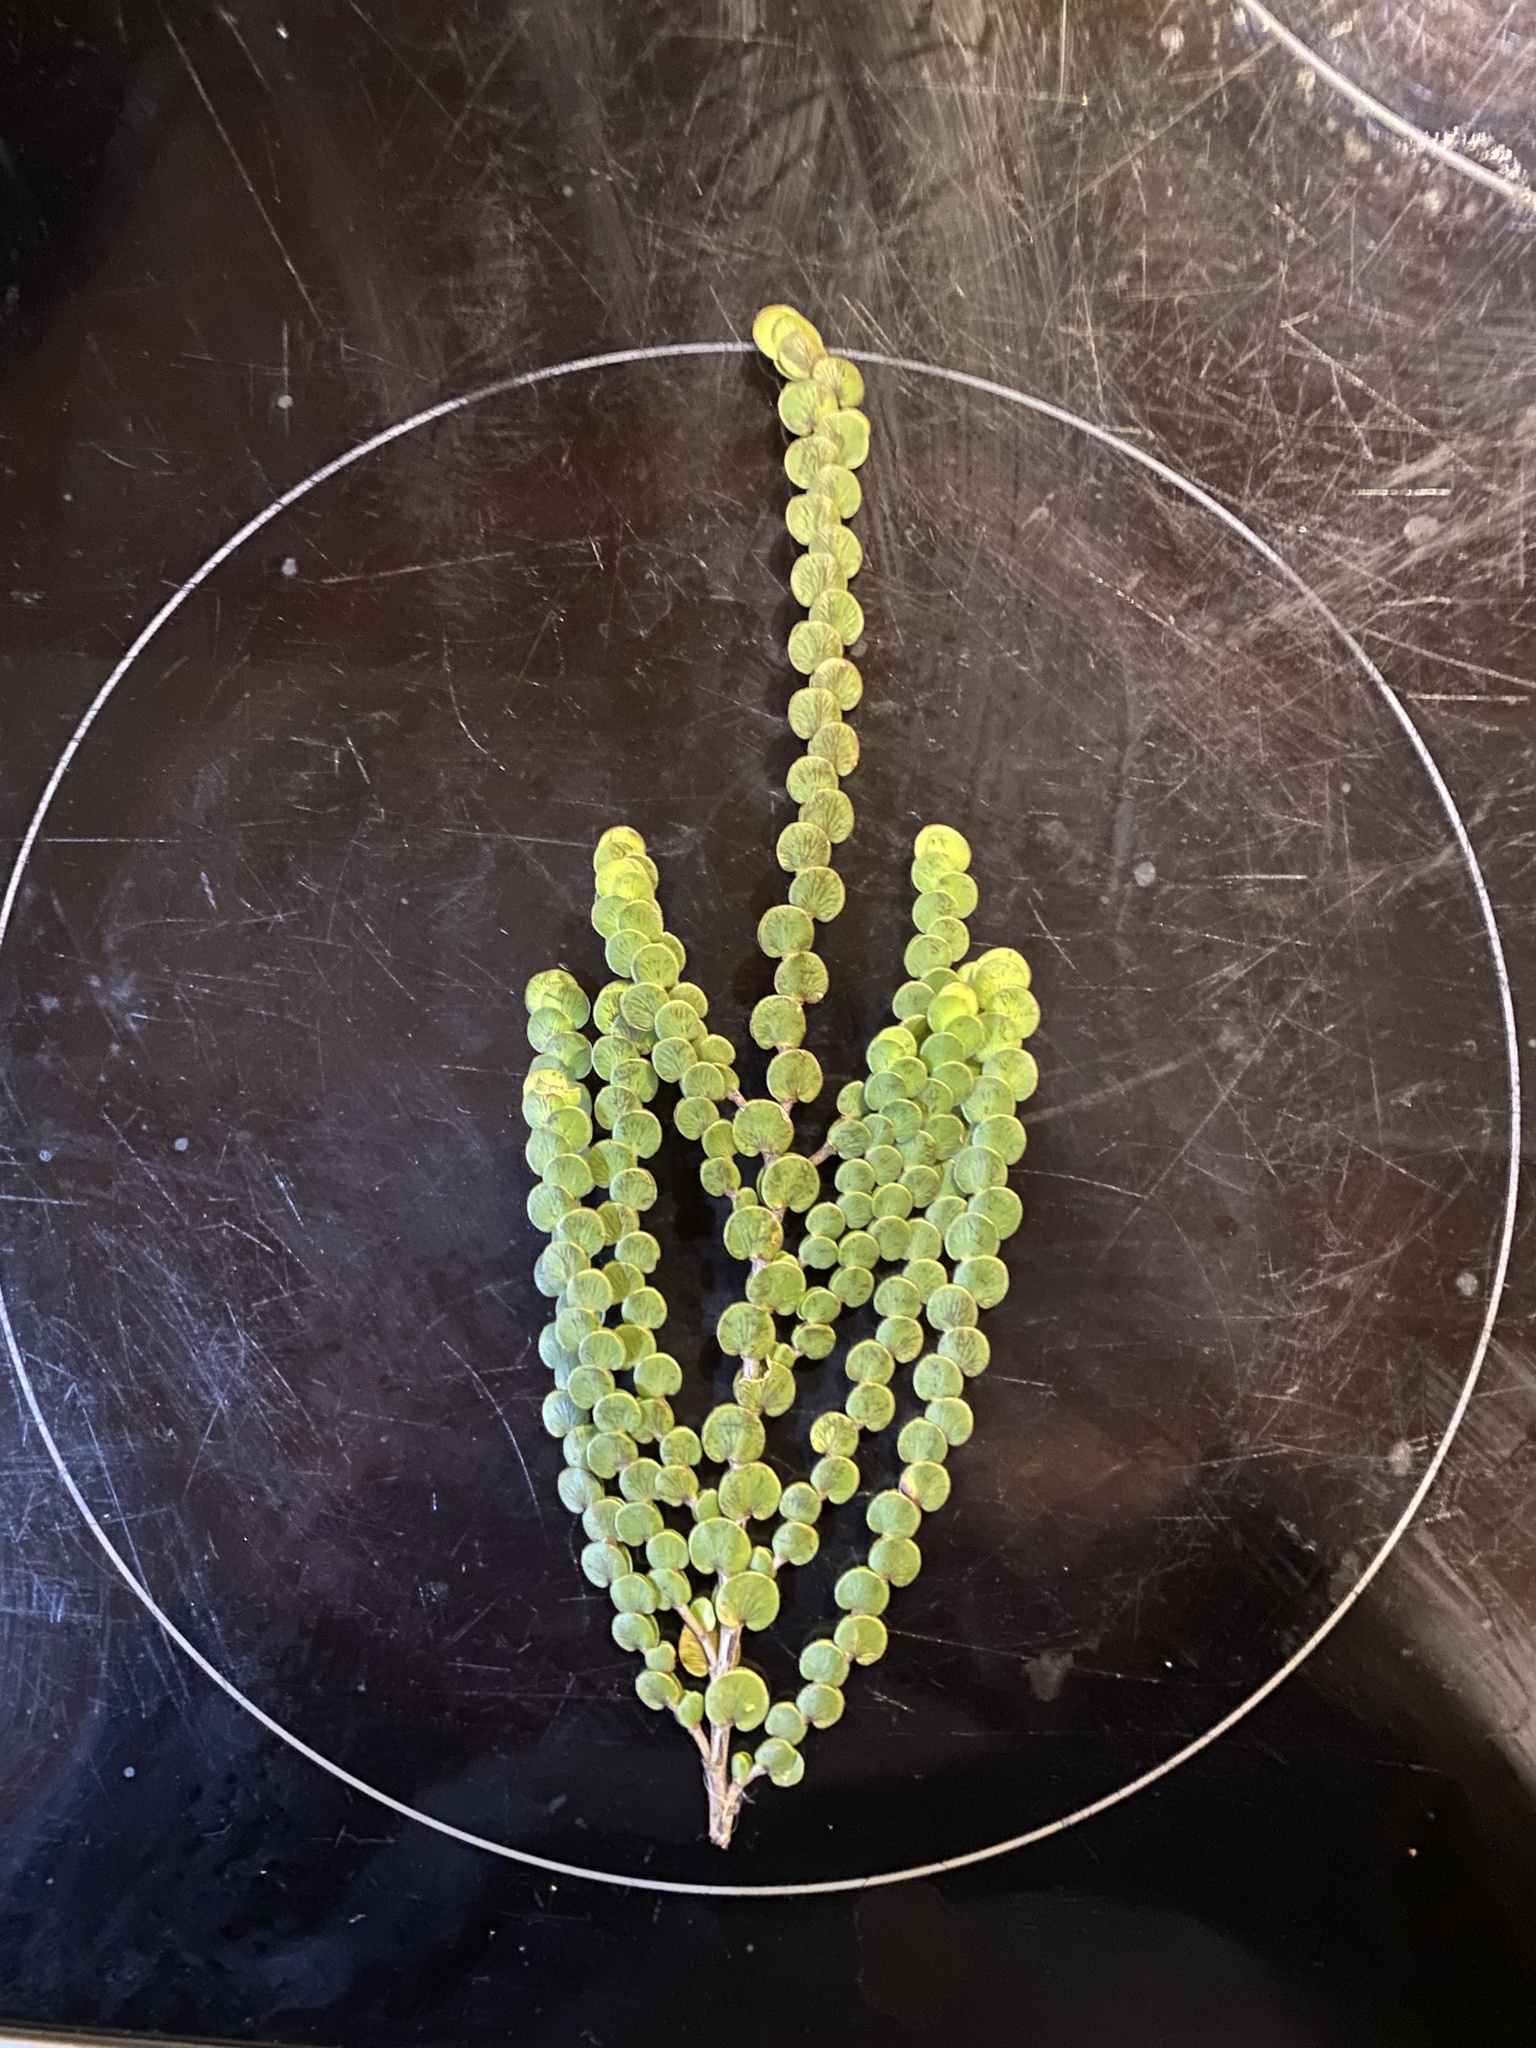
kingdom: Plantae
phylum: Tracheophyta
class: Magnoliopsida
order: Rosales
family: Rosaceae
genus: Cliffortia
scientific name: Cliffortia pulchella
